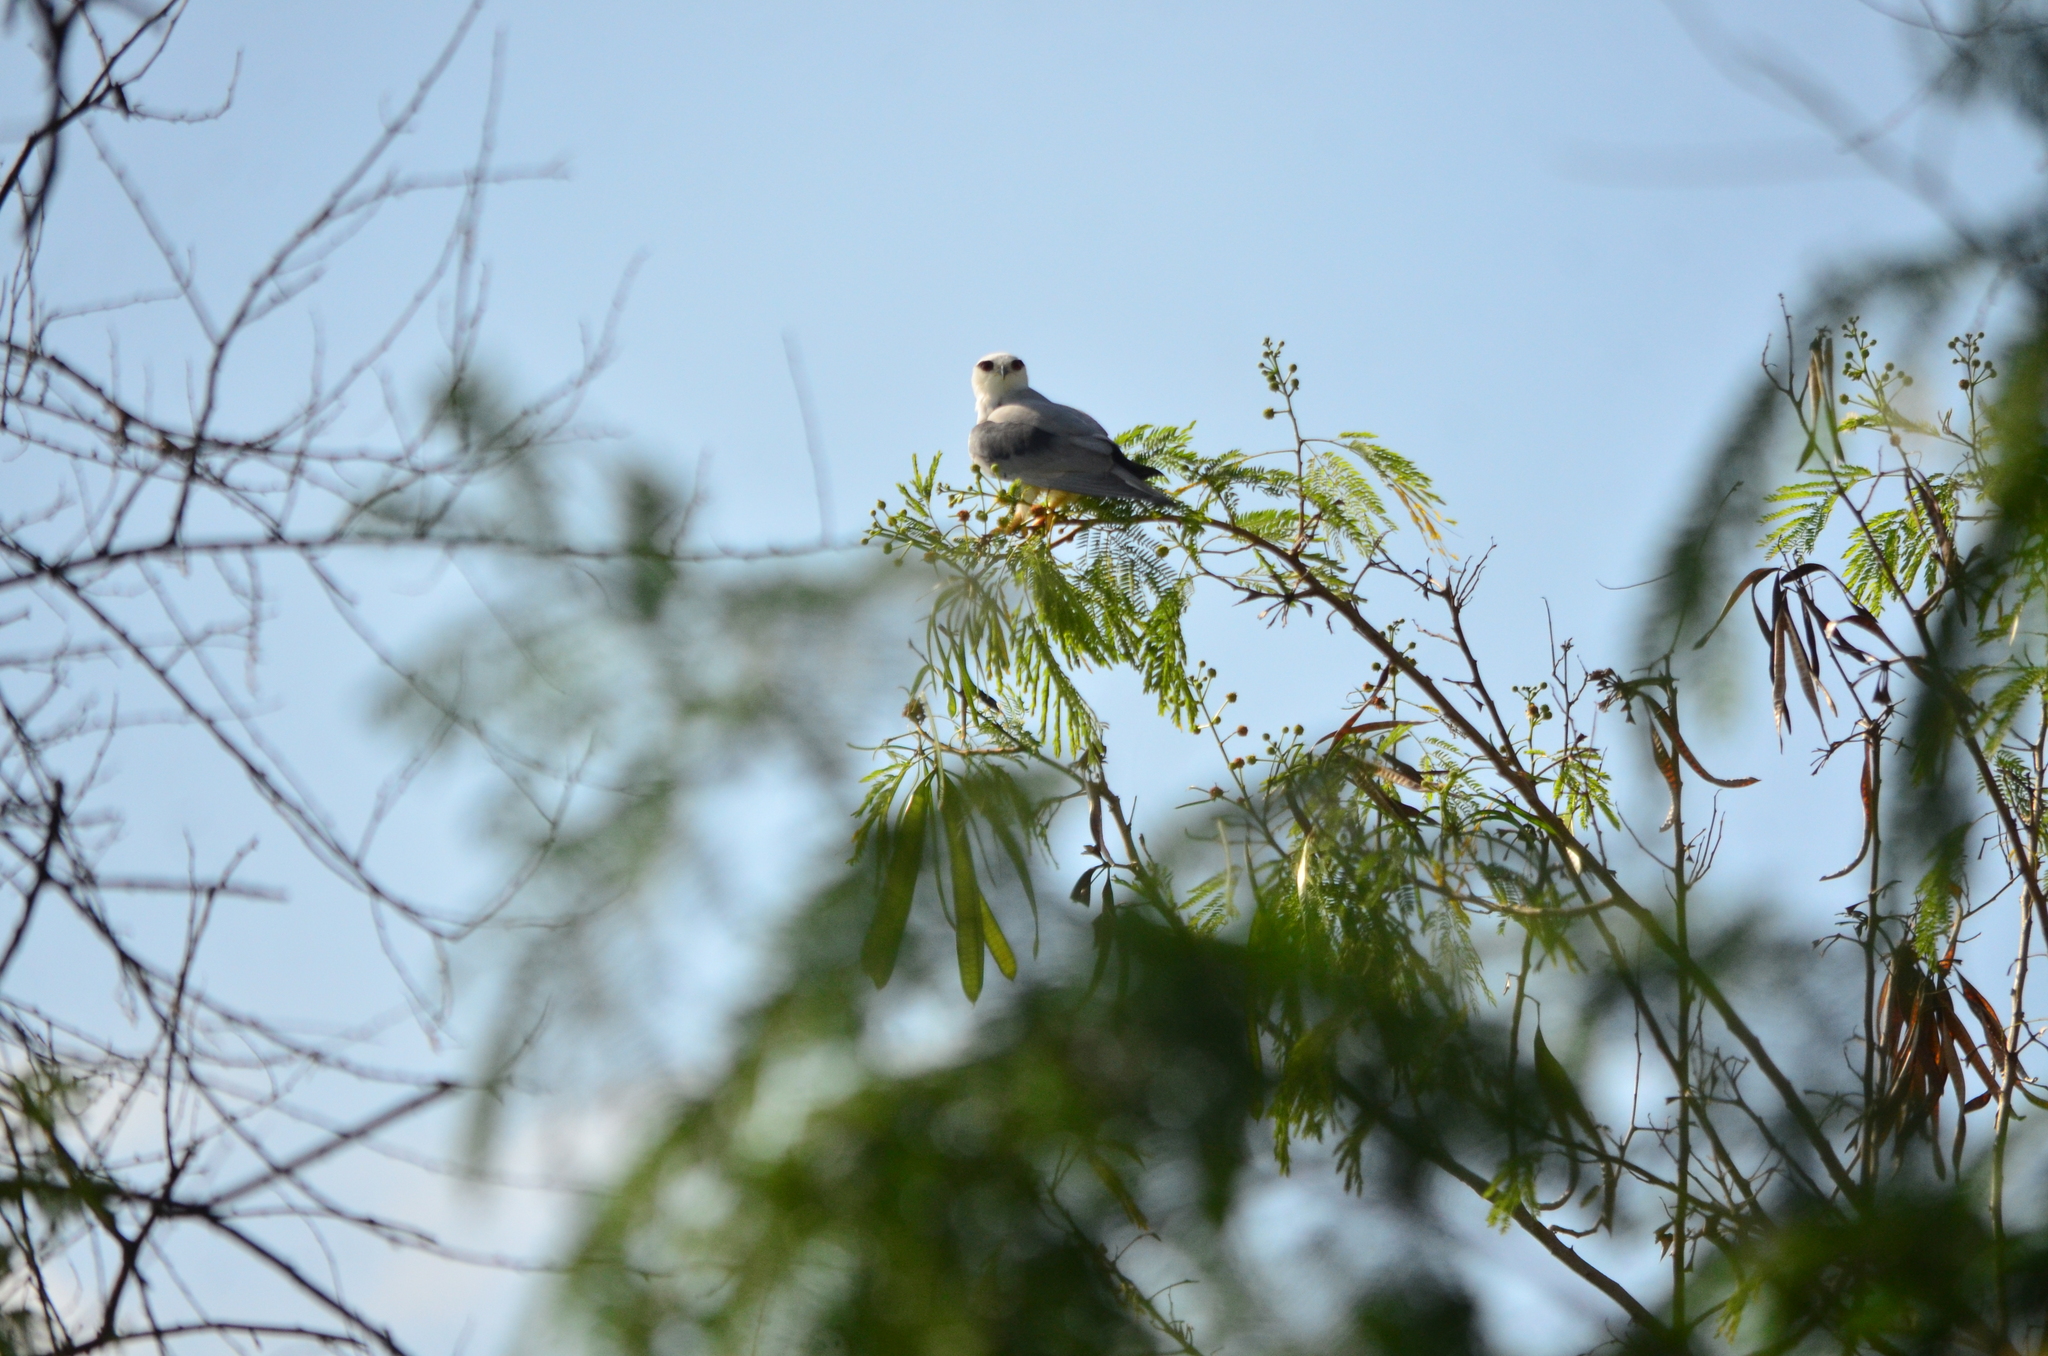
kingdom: Animalia
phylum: Chordata
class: Aves
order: Accipitriformes
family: Accipitridae
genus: Elanus
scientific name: Elanus caeruleus
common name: Black-winged kite
